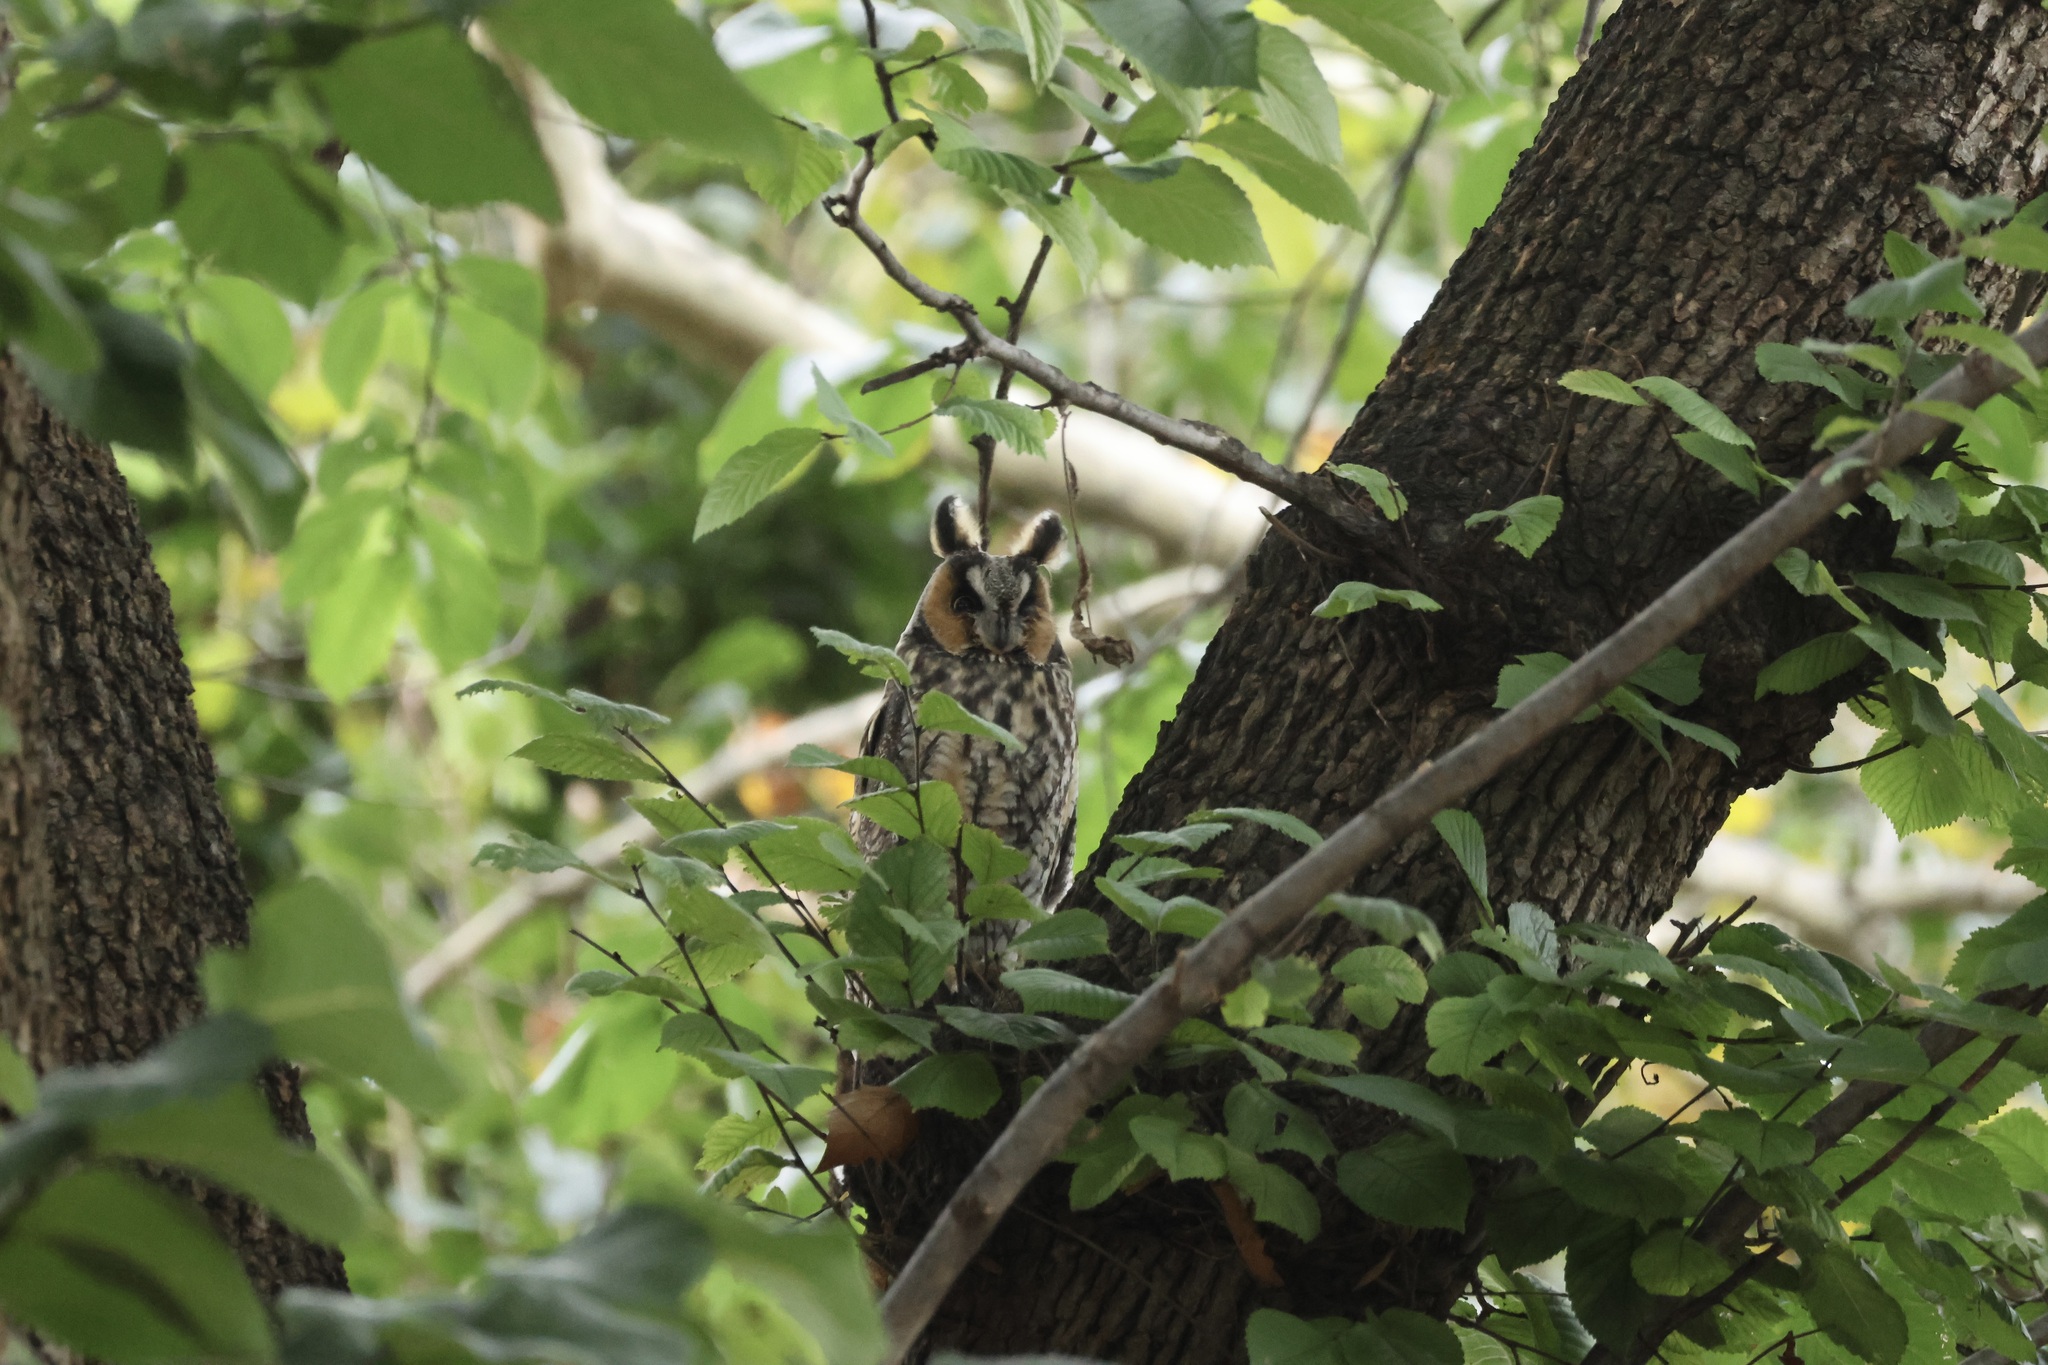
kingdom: Animalia
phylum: Chordata
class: Aves
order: Strigiformes
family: Strigidae
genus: Asio
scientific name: Asio otus
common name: Long-eared owl
